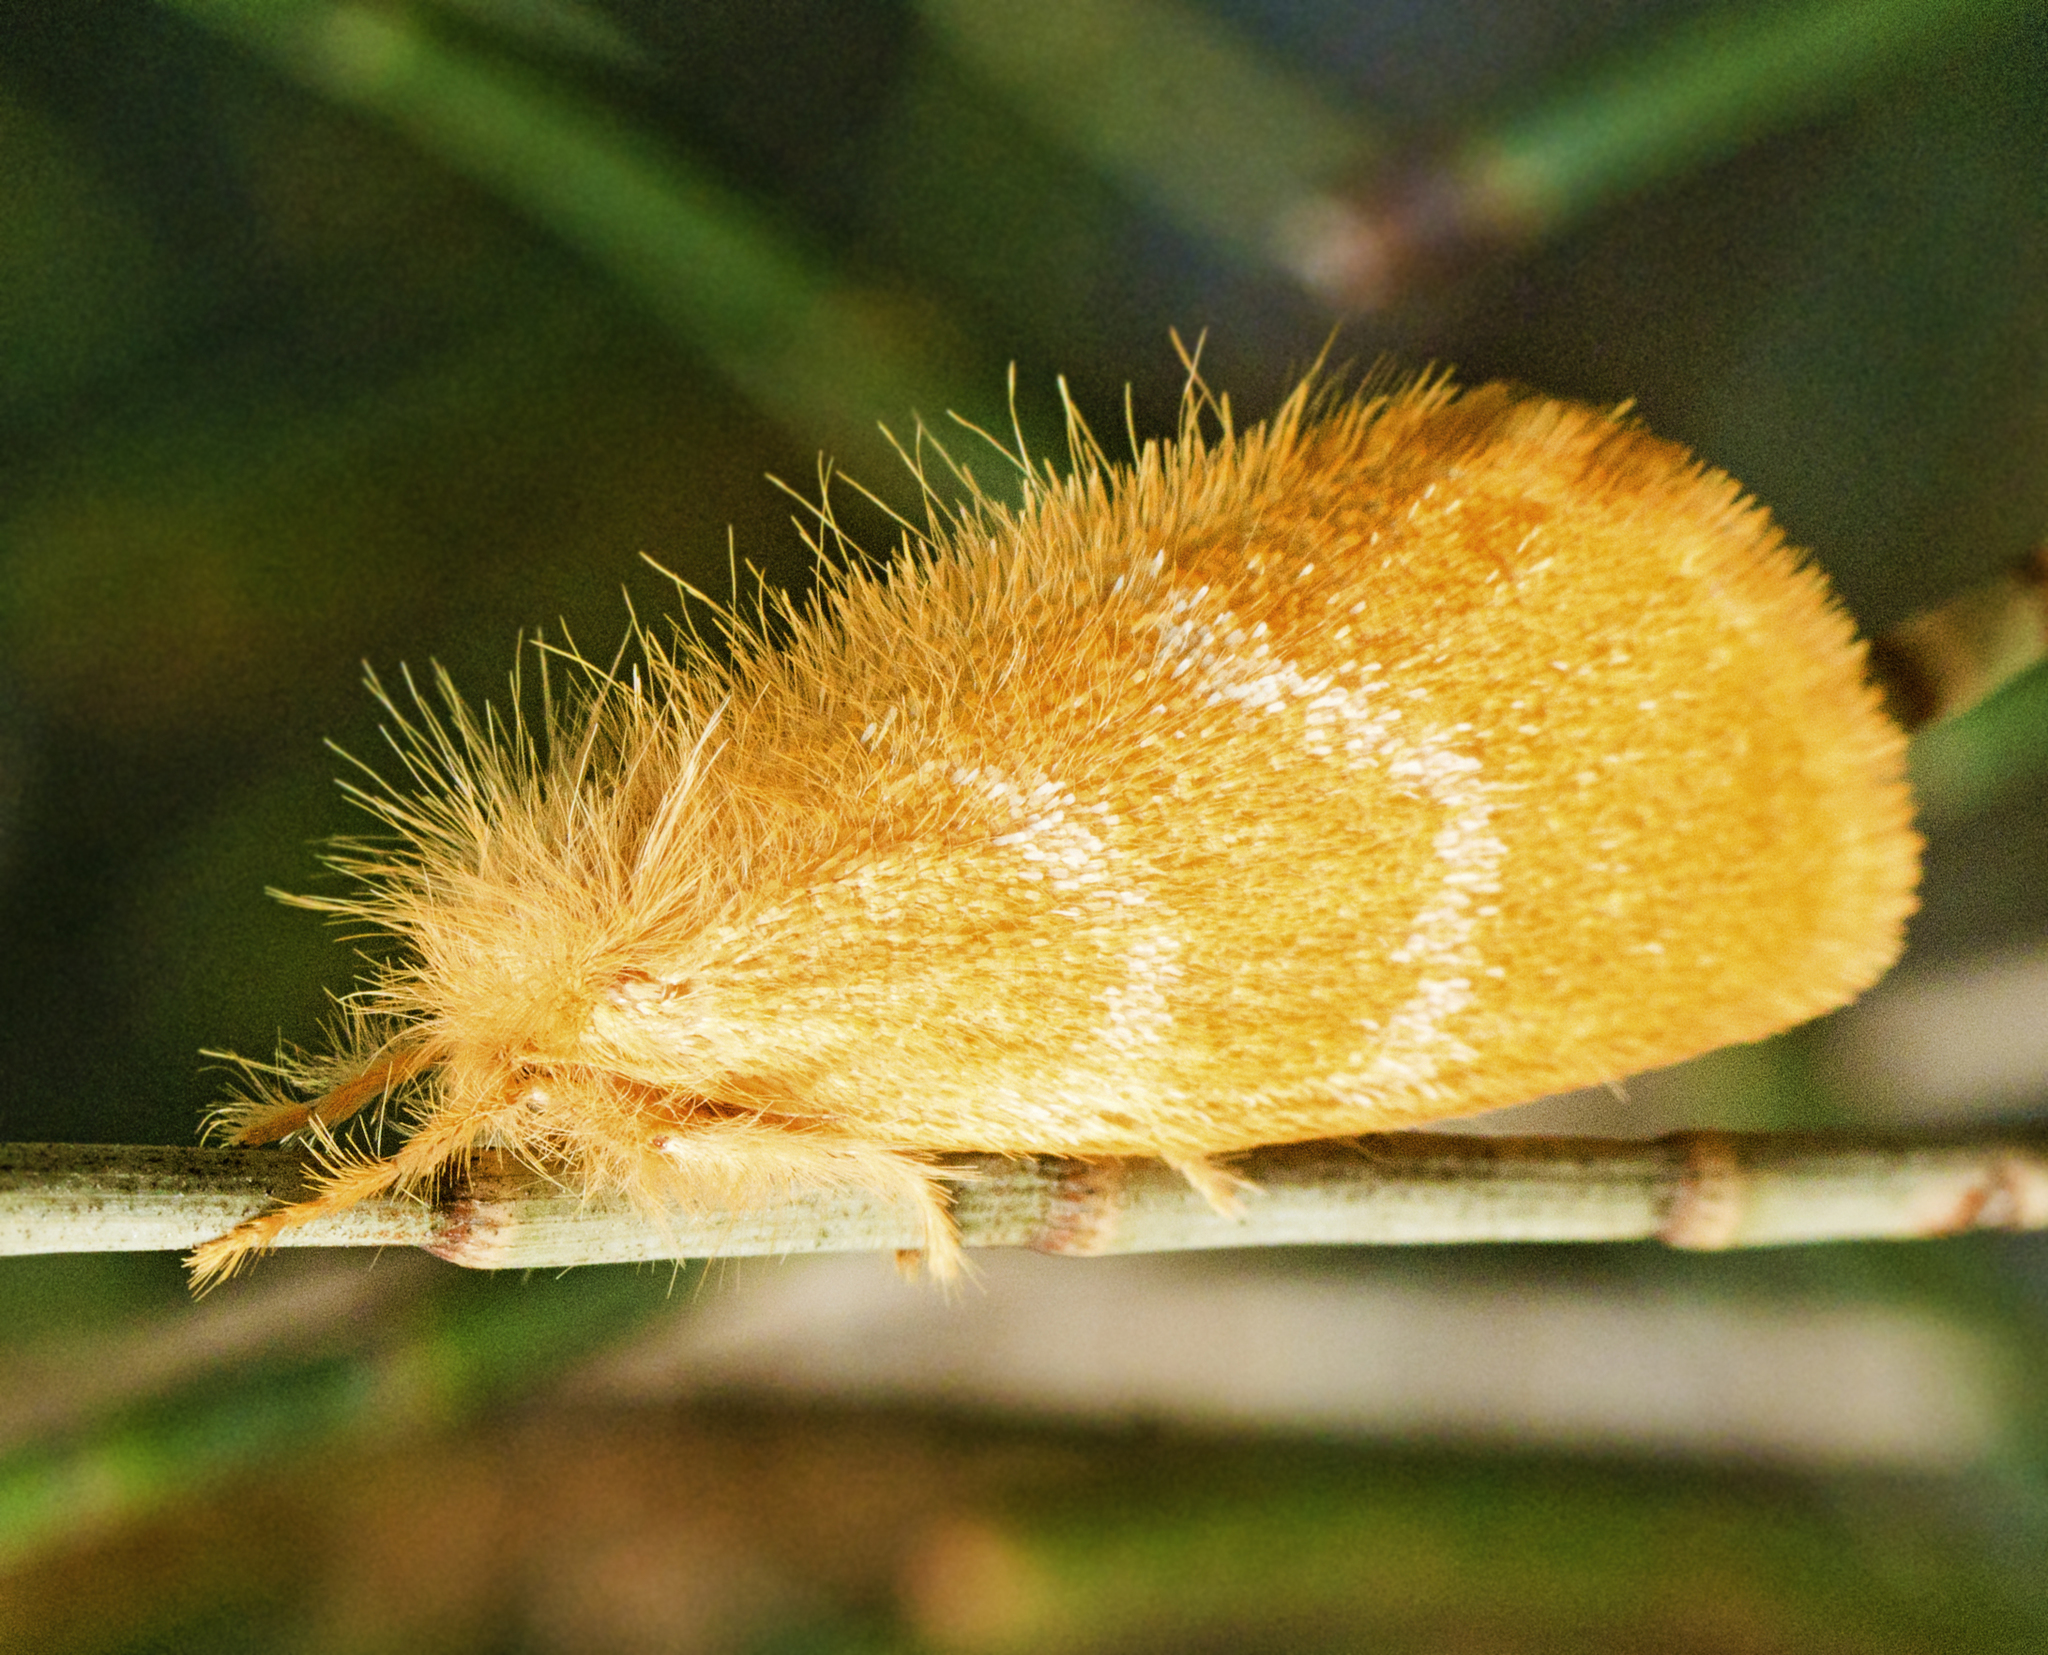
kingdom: Animalia
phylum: Arthropoda
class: Insecta
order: Lepidoptera
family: Erebidae
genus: Euproctis
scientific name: Euproctis lutea
